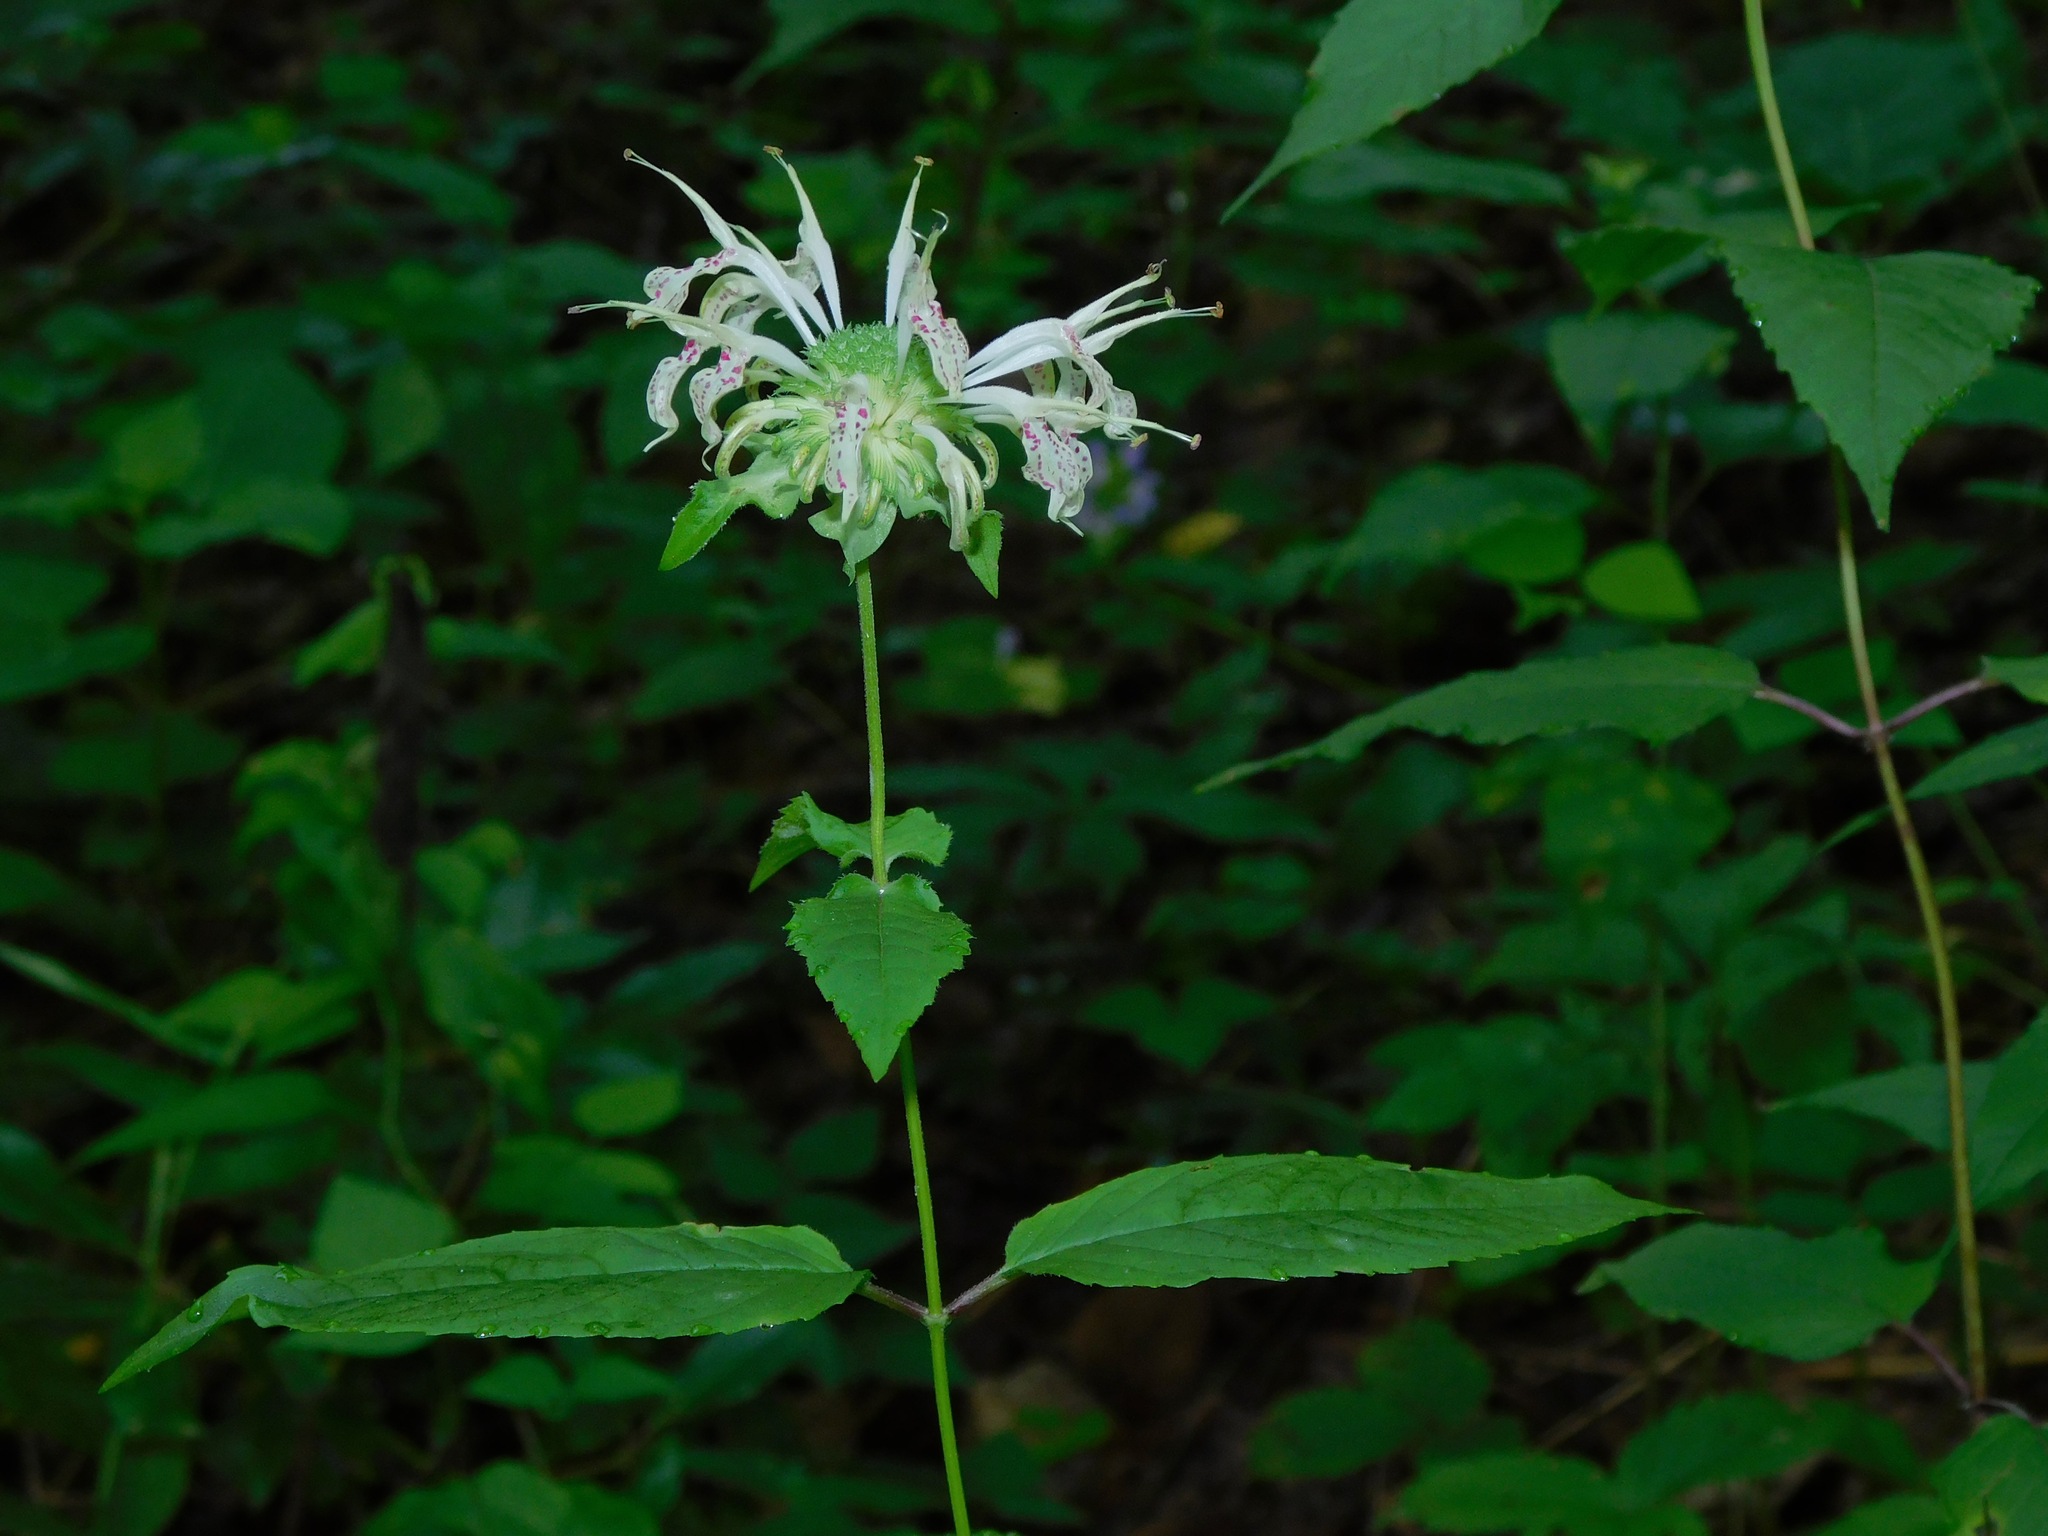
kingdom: Plantae
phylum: Tracheophyta
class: Magnoliopsida
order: Lamiales
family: Lamiaceae
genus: Monarda
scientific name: Monarda clinopodia
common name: Basil beebalm
